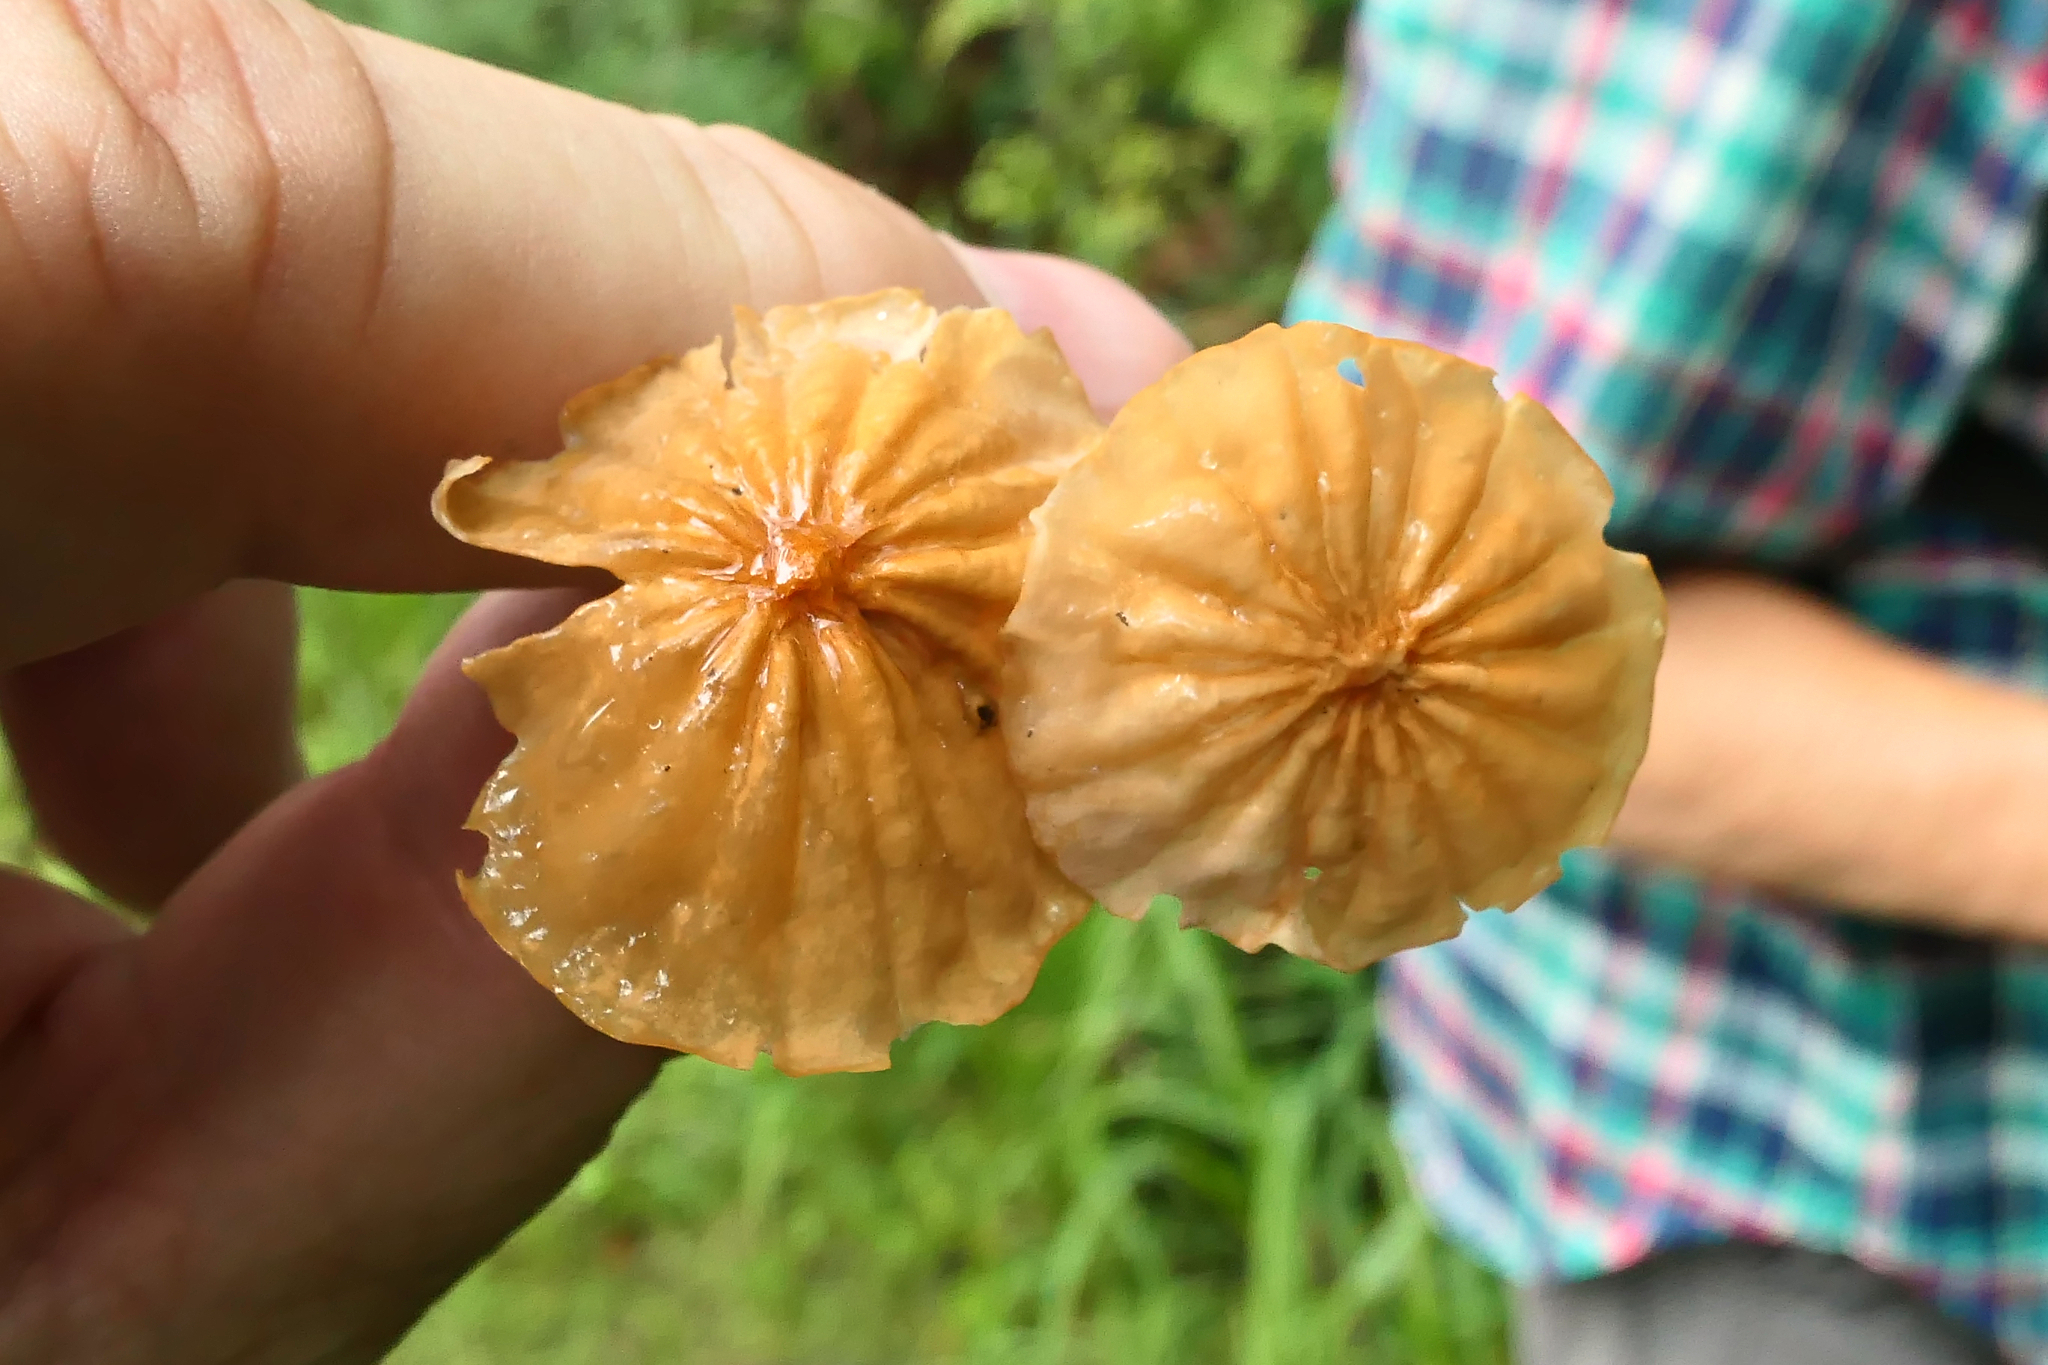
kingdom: Fungi
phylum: Basidiomycota
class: Agaricomycetes
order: Agaricales
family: Marasmiaceae
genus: Marasmius
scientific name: Marasmius siccus
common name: Orange pinwheel
